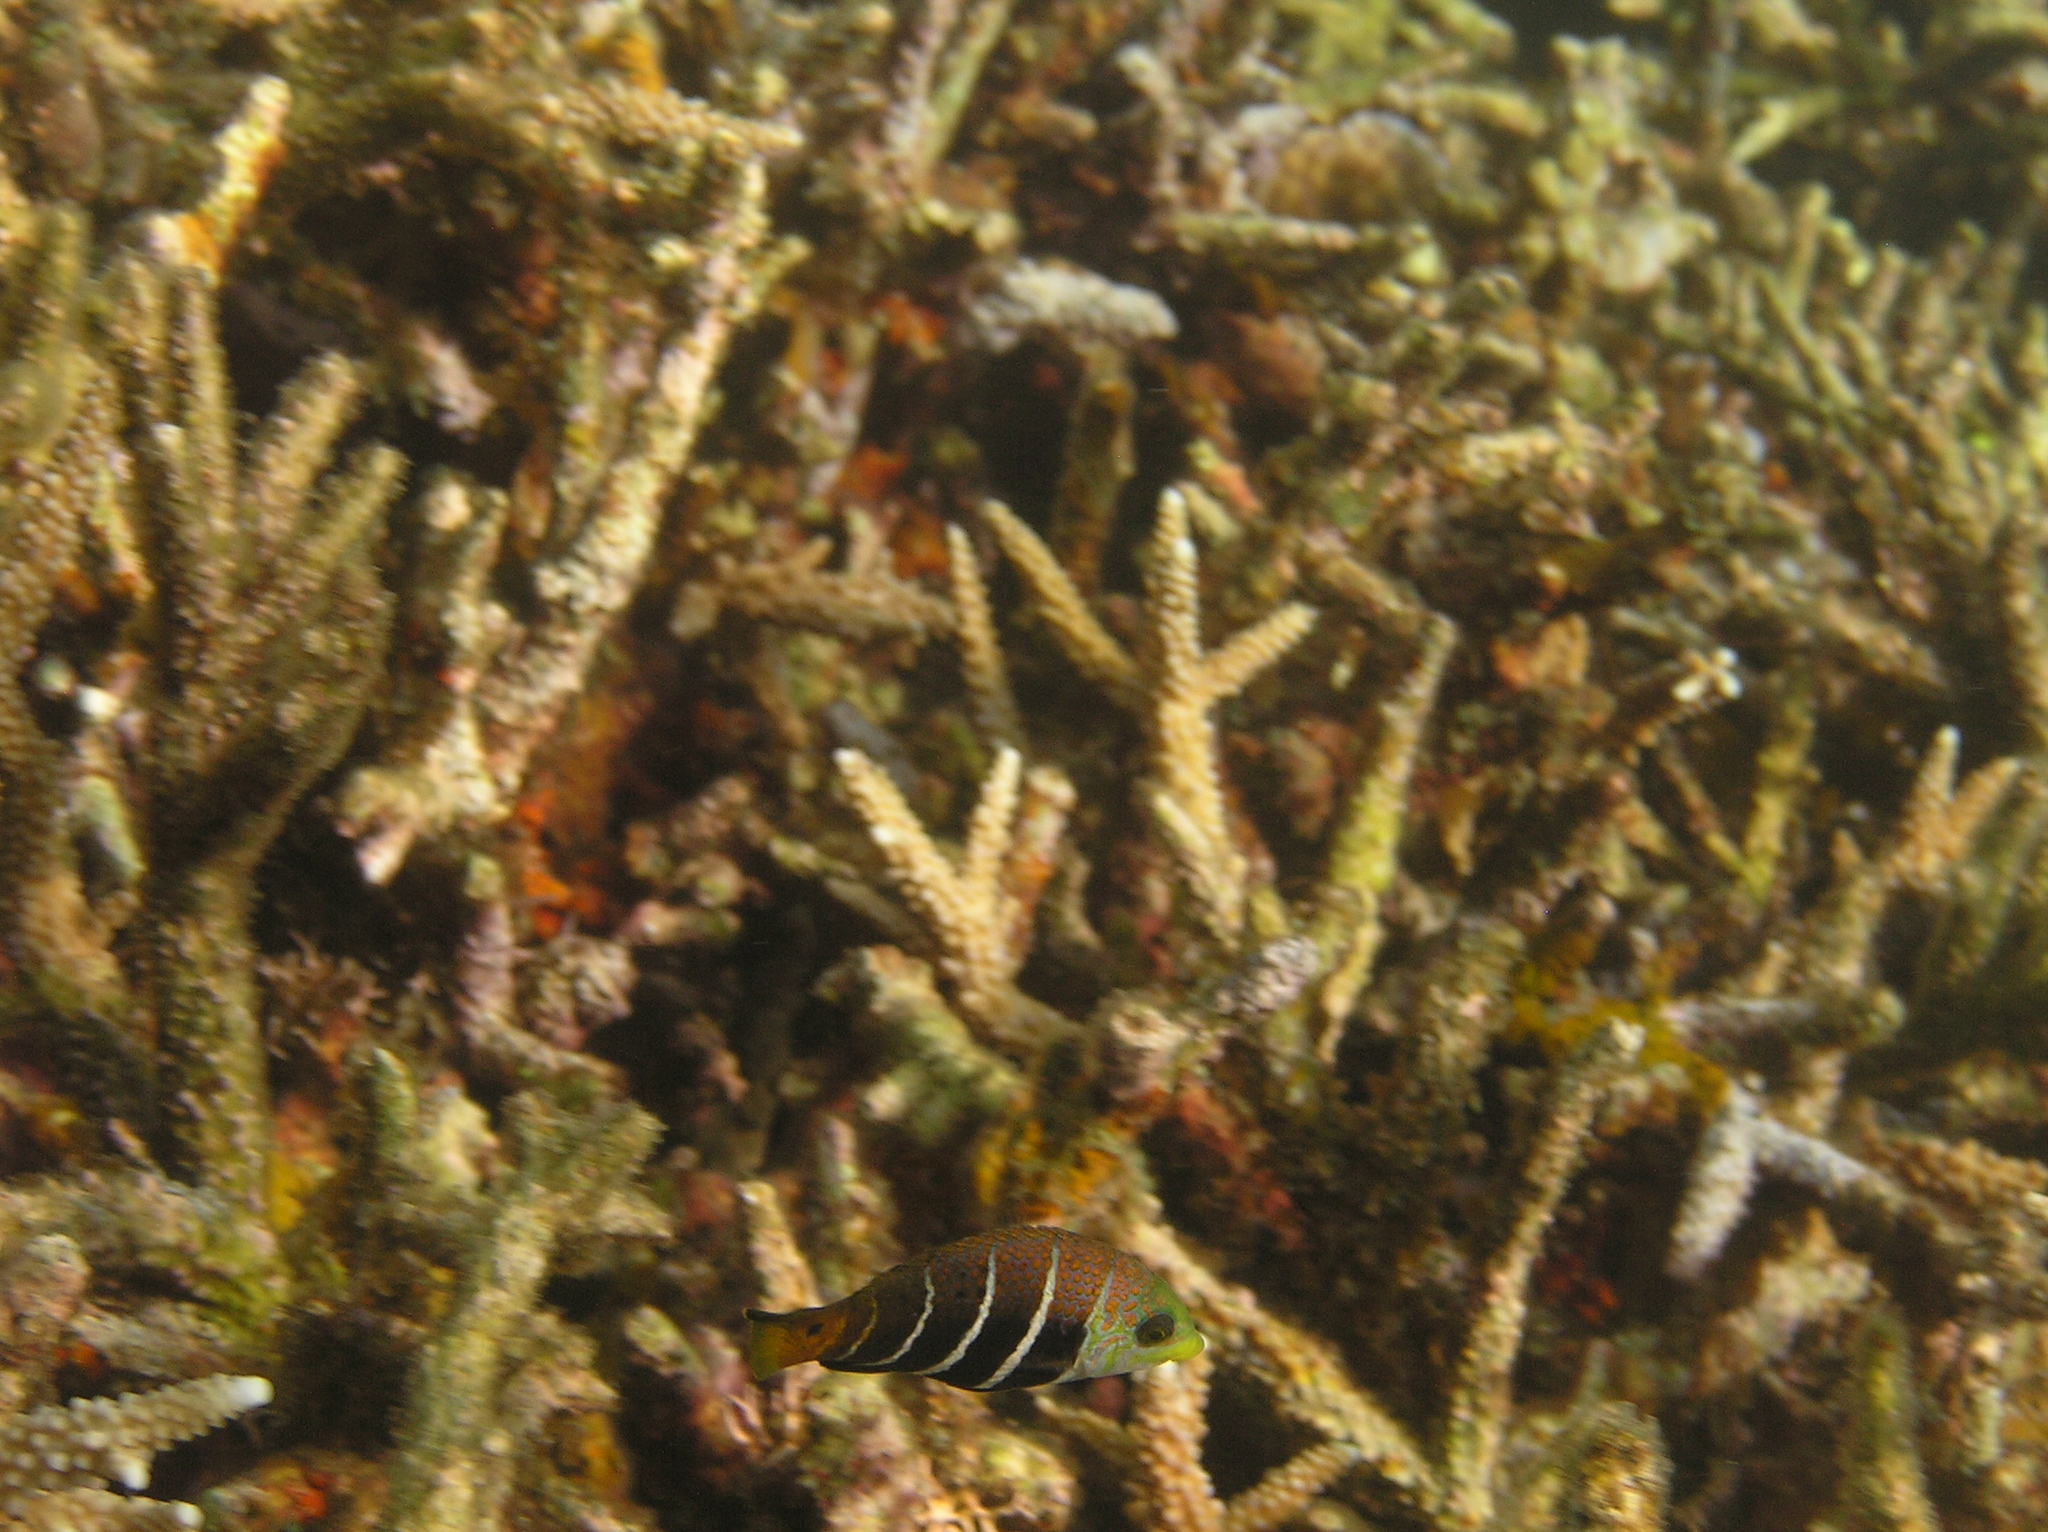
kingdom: Animalia
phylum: Chordata
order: Perciformes
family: Labridae
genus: Hemigymnus
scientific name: Hemigymnus fasciatus
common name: Barred thicklip
